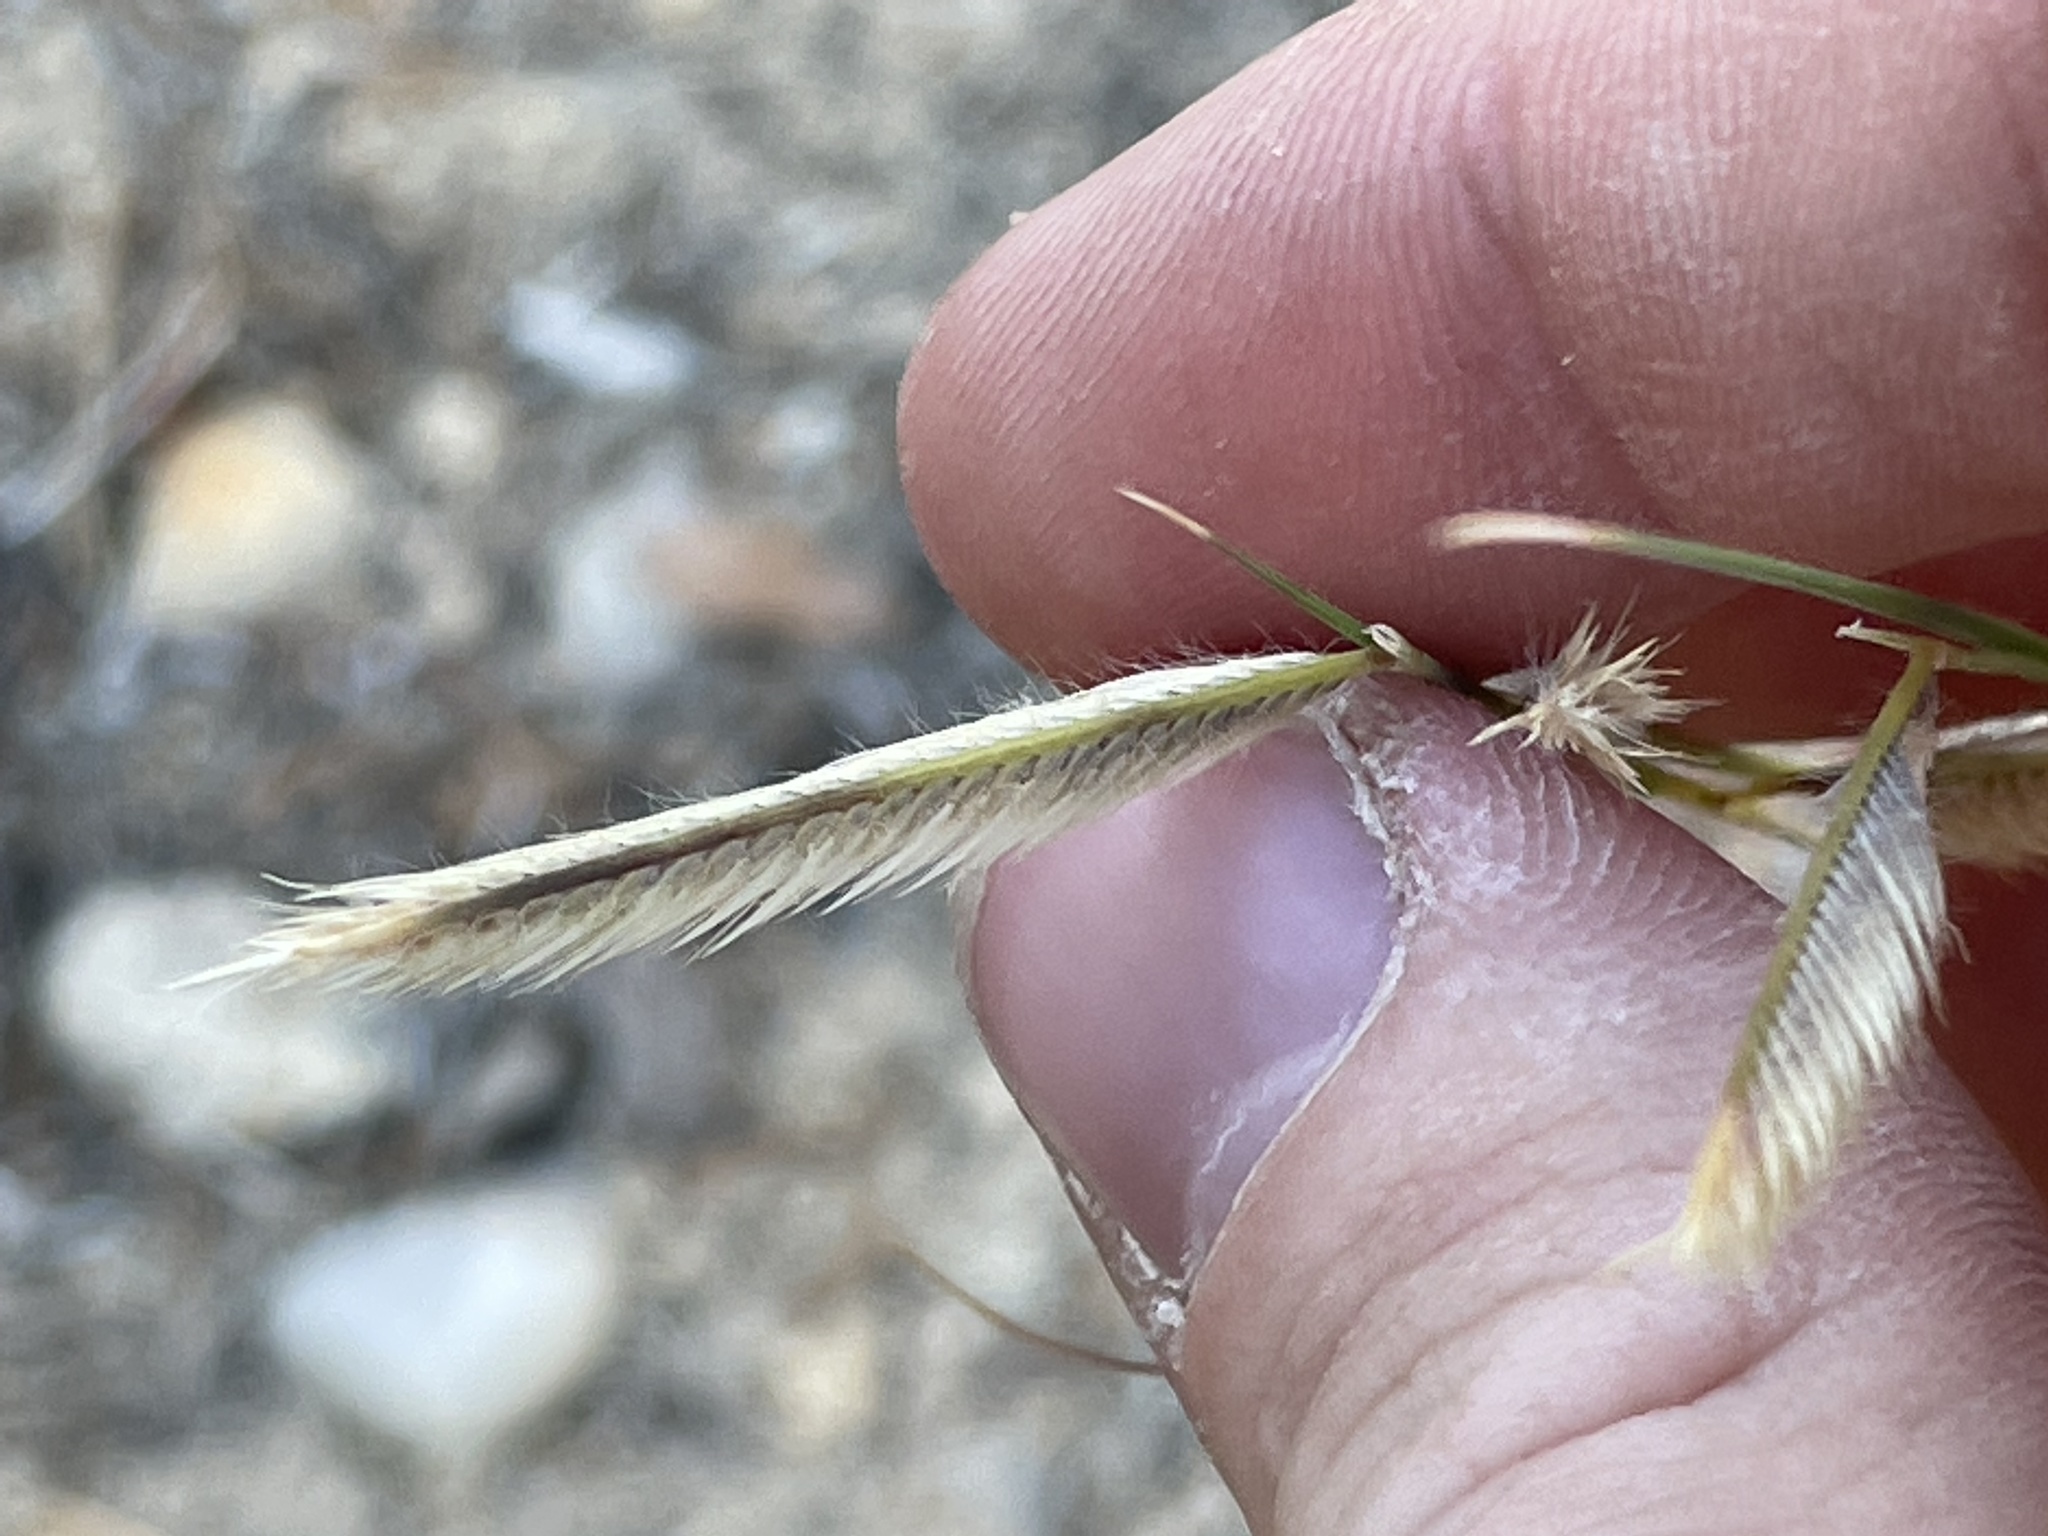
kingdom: Plantae
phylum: Tracheophyta
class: Liliopsida
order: Poales
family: Poaceae
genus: Bouteloua
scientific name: Bouteloua gracilis
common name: Blue grama
